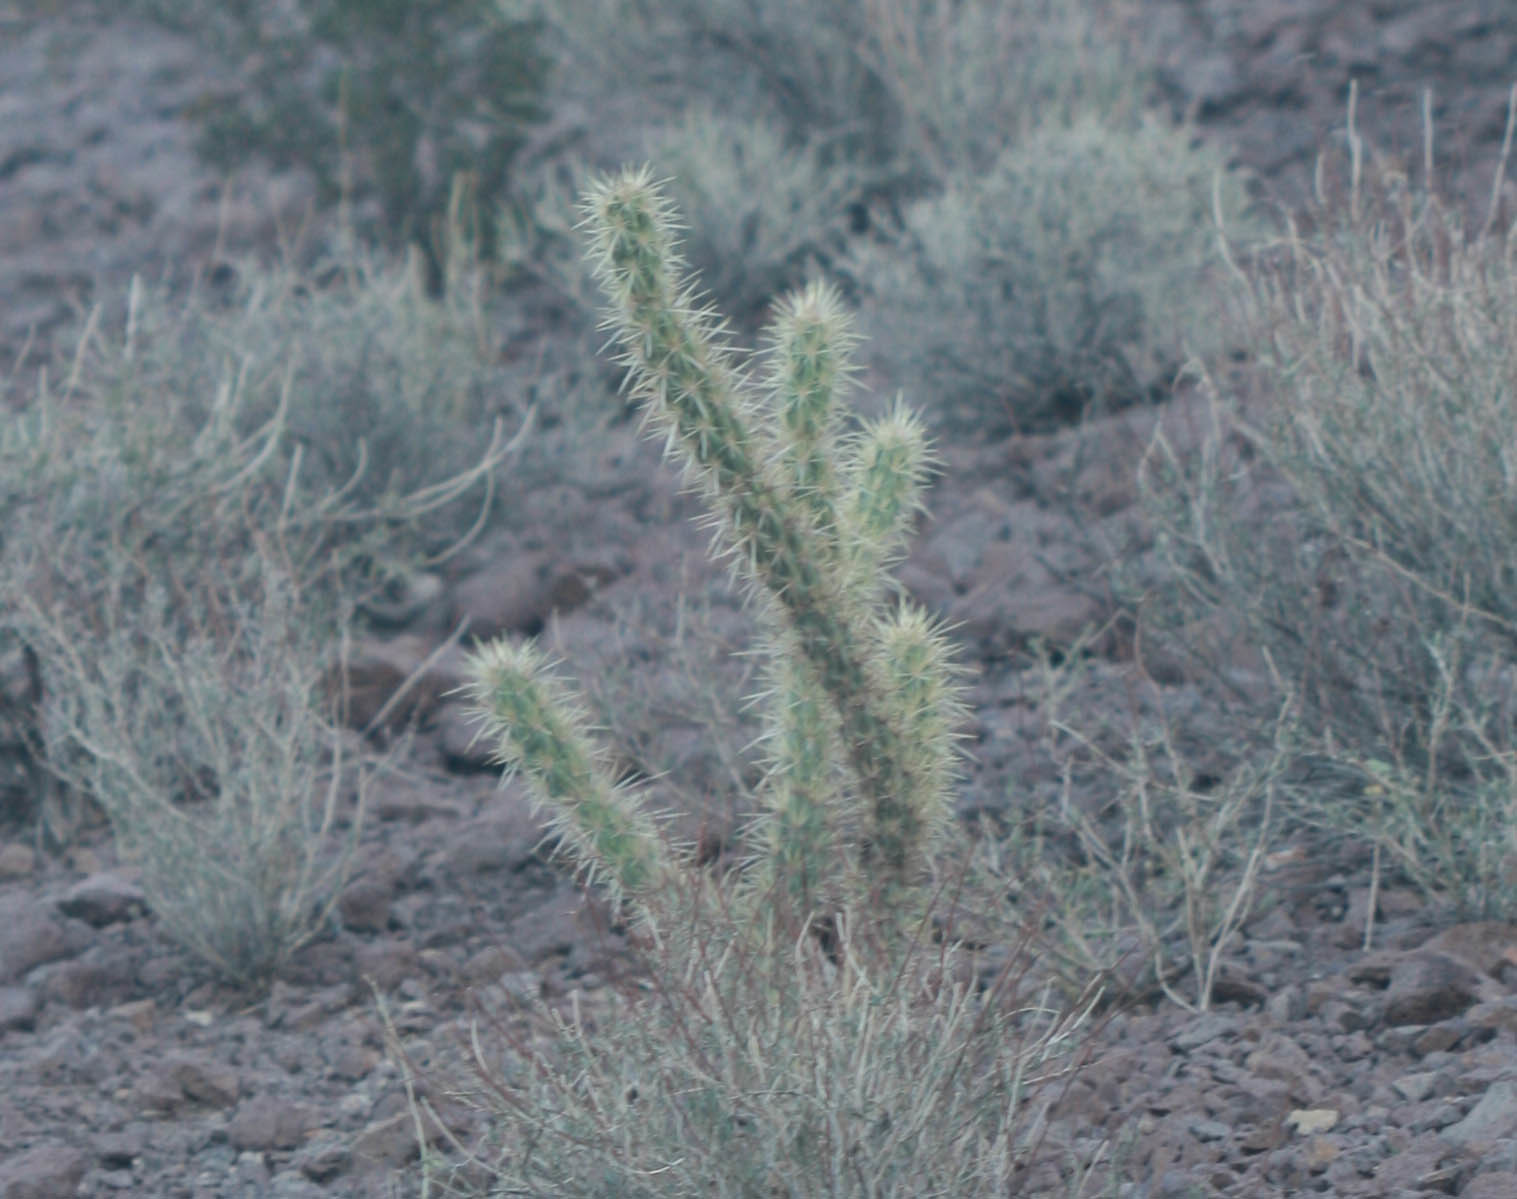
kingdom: Plantae
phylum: Tracheophyta
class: Magnoliopsida
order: Caryophyllales
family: Cactaceae
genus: Cylindropuntia
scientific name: Cylindropuntia acanthocarpa
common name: Buckhorn cholla
